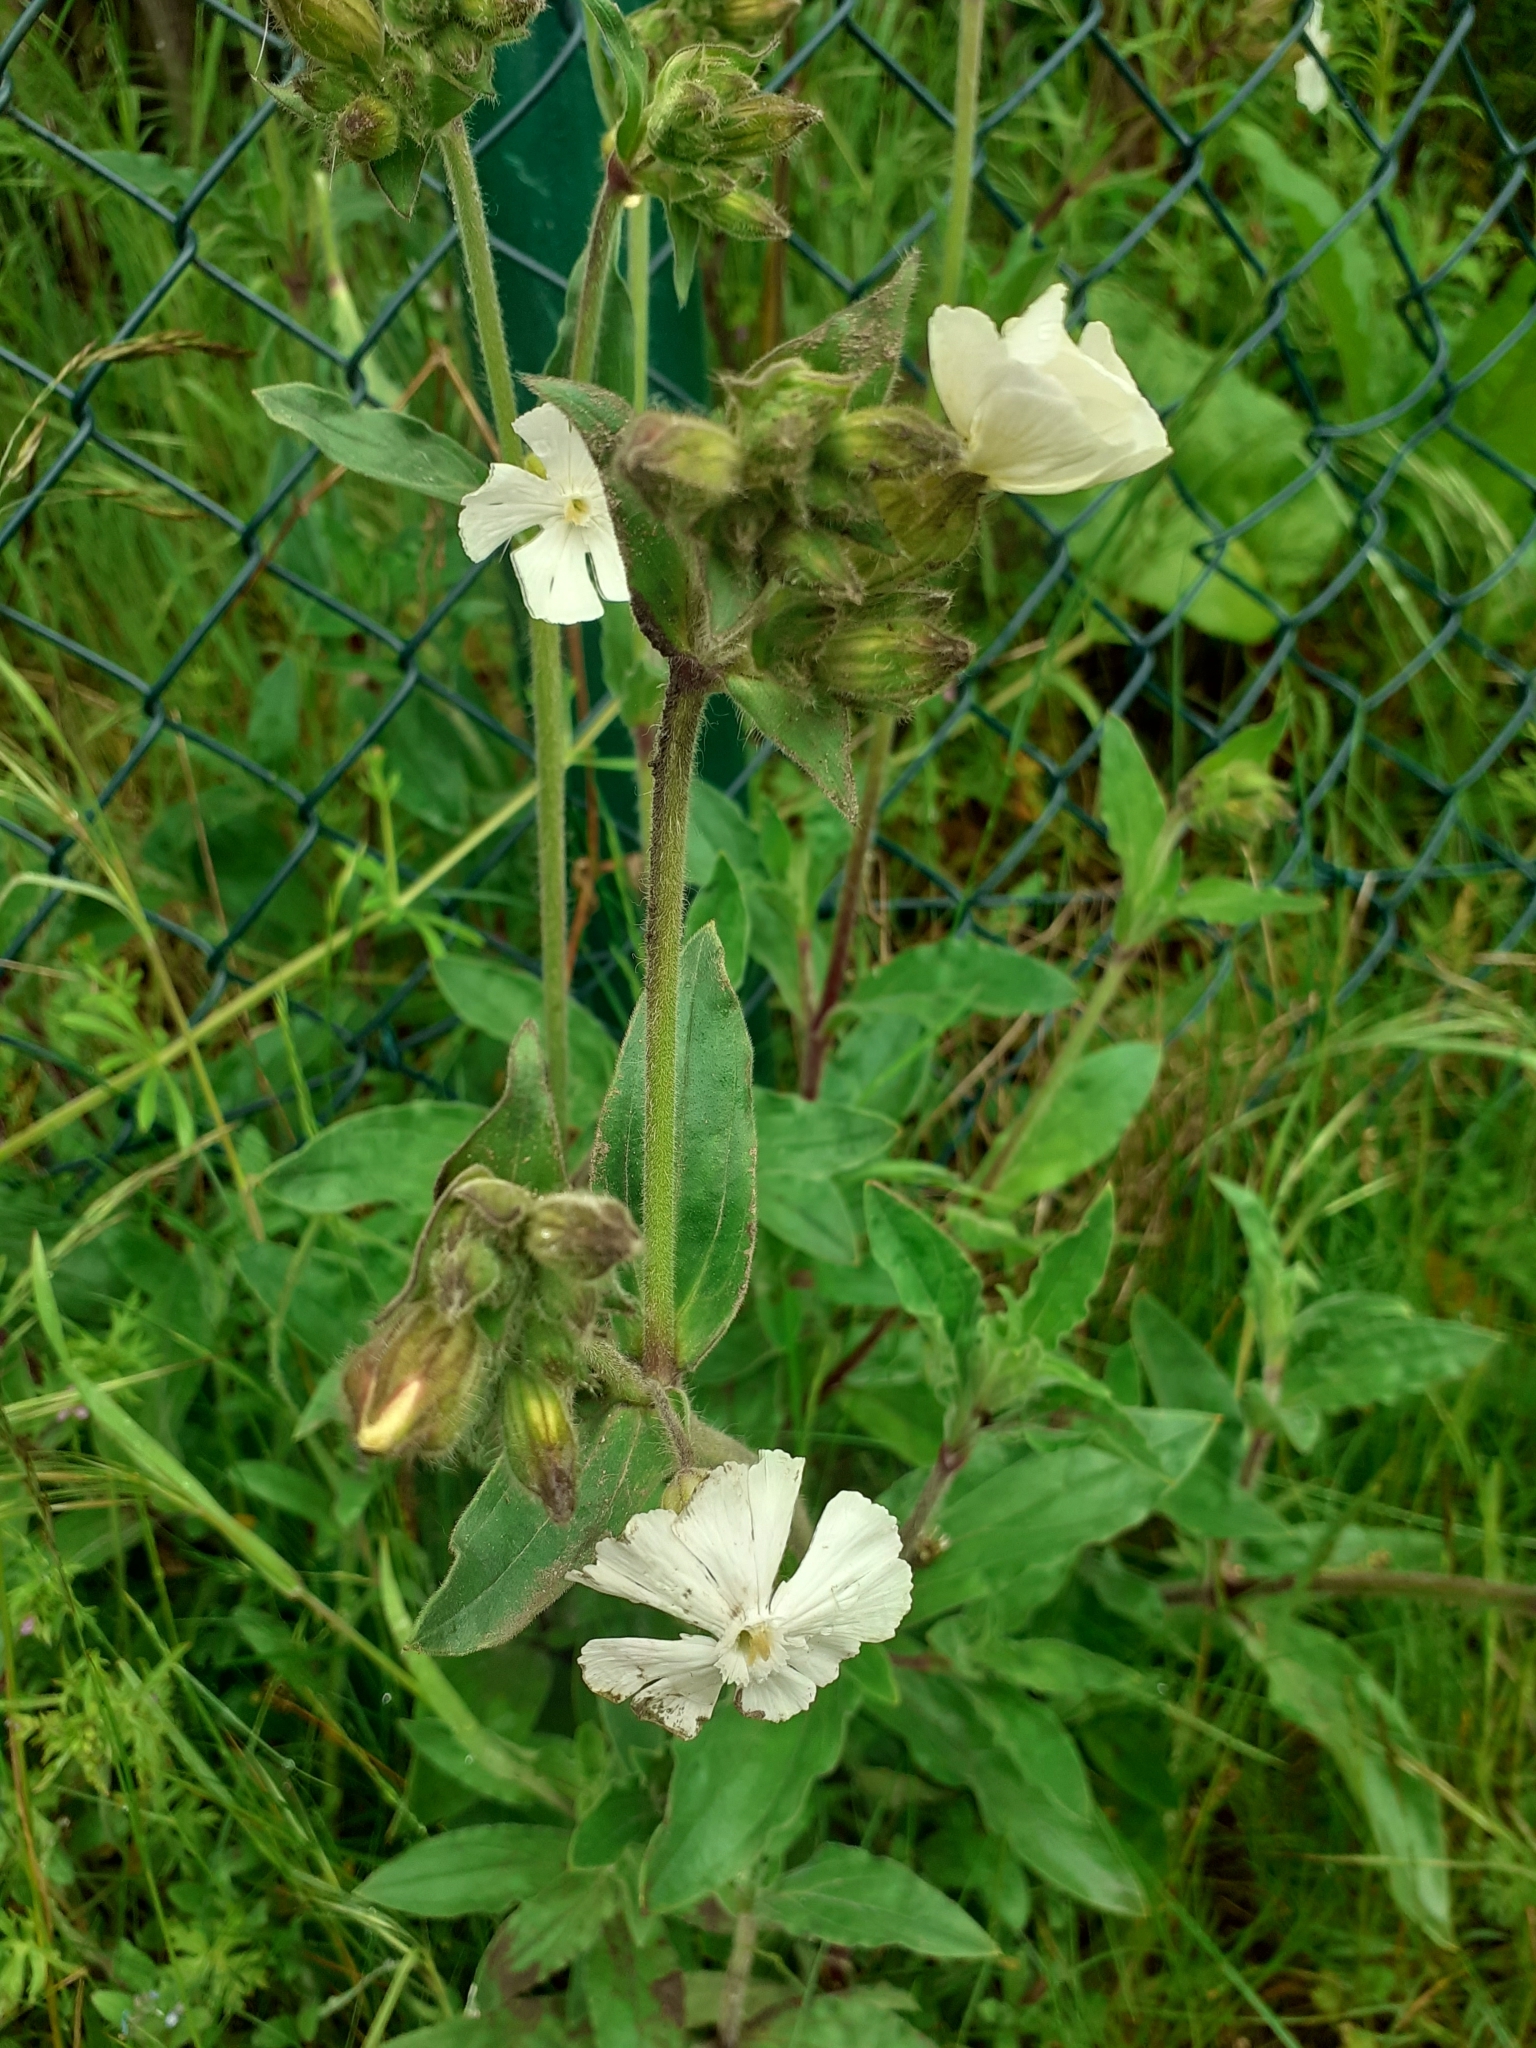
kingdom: Plantae
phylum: Tracheophyta
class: Magnoliopsida
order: Caryophyllales
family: Caryophyllaceae
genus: Silene
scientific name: Silene latifolia
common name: White campion
